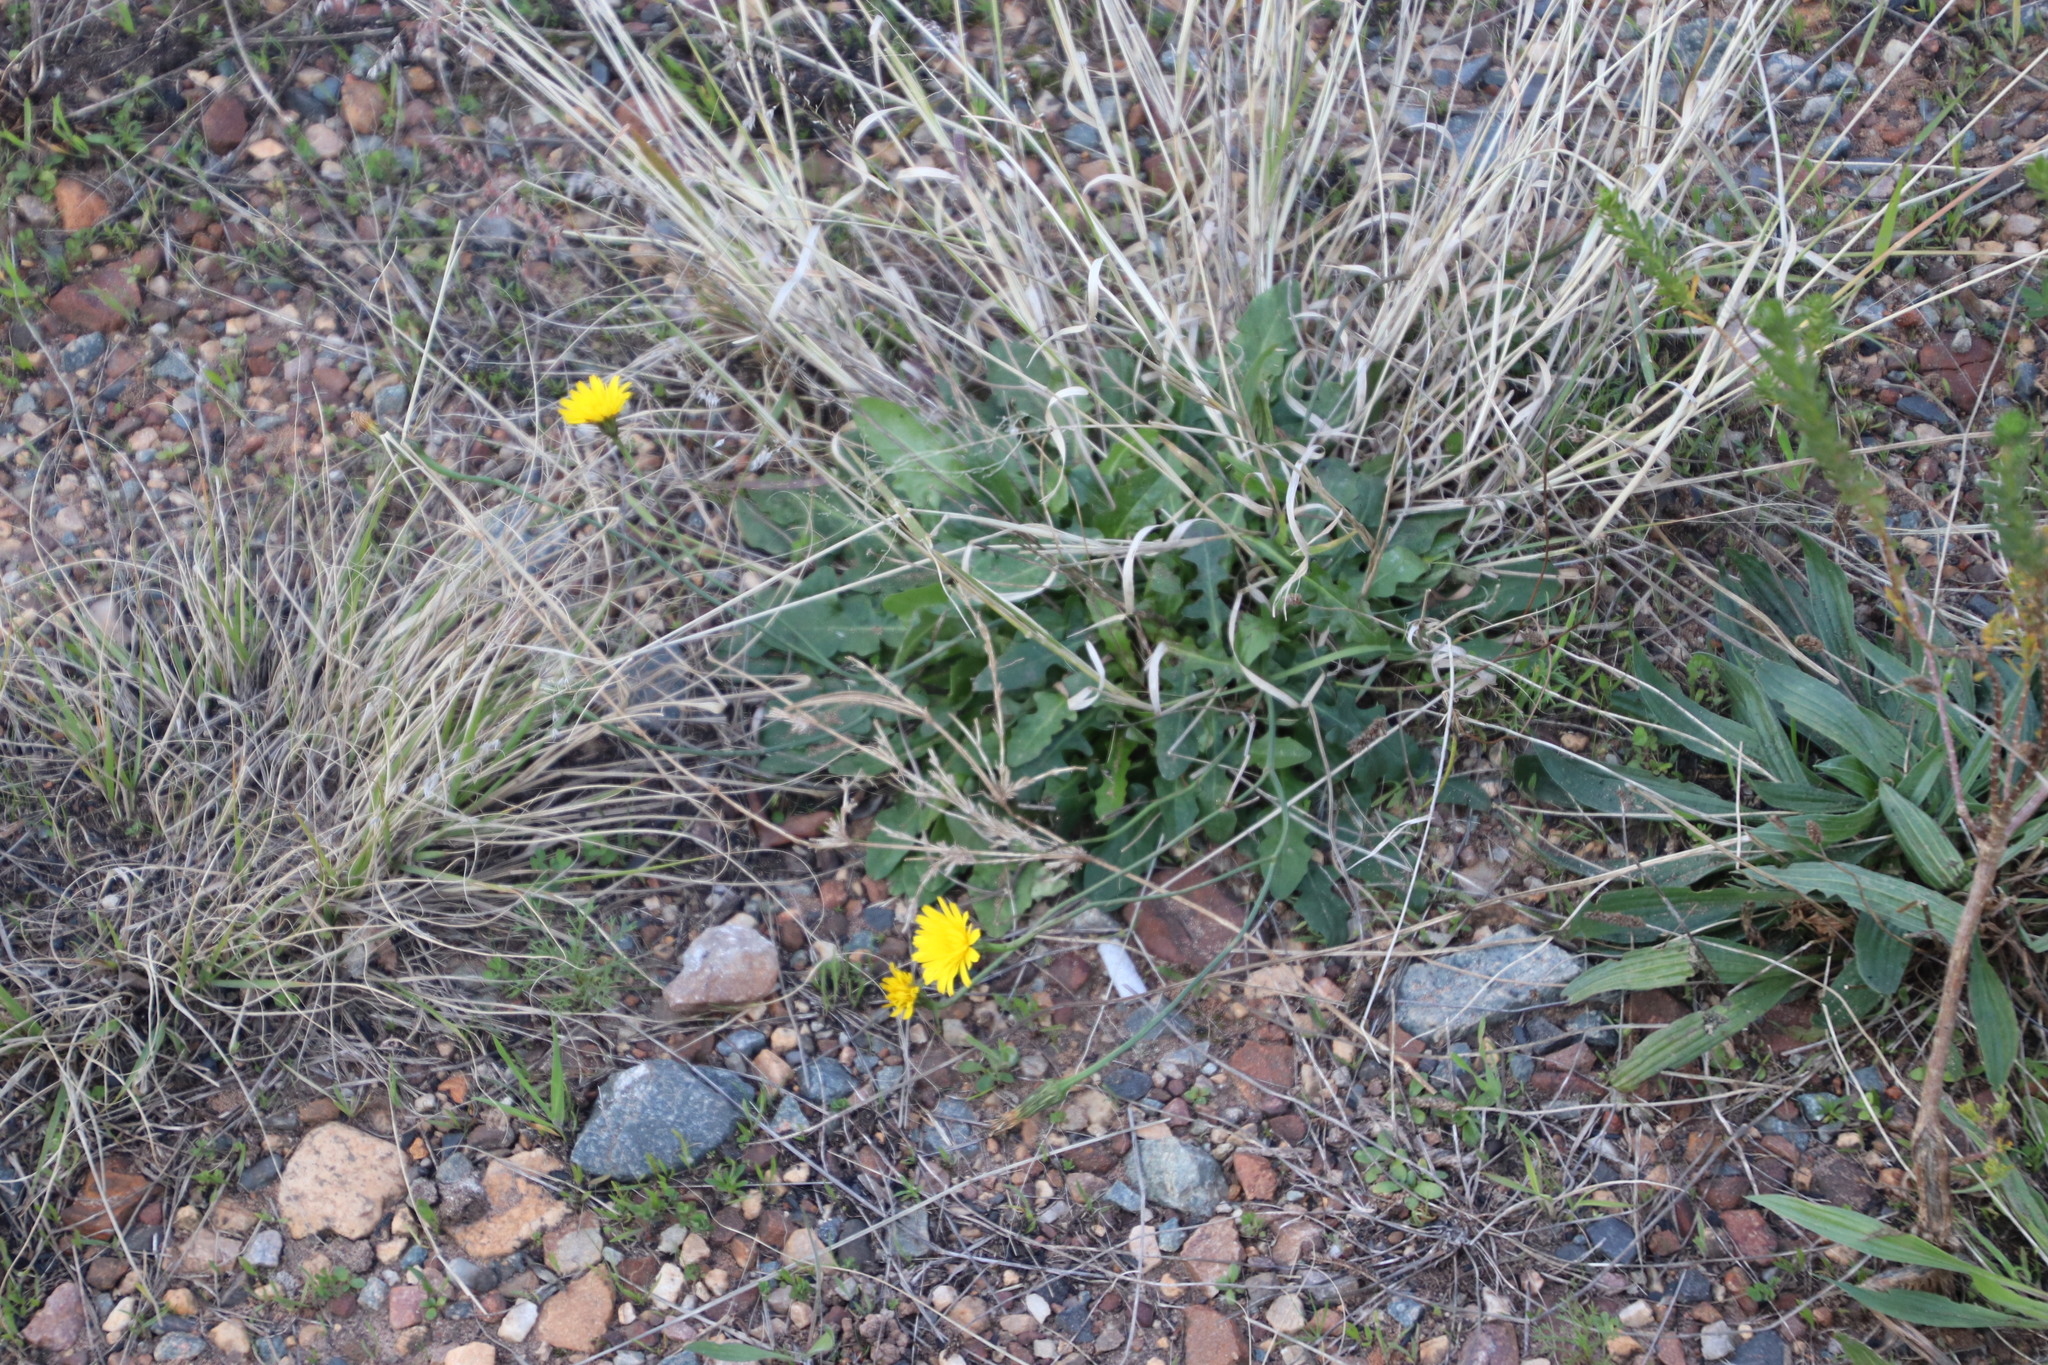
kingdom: Plantae
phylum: Tracheophyta
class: Magnoliopsida
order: Asterales
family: Asteraceae
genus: Hypochaeris
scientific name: Hypochaeris radicata
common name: Flatweed
